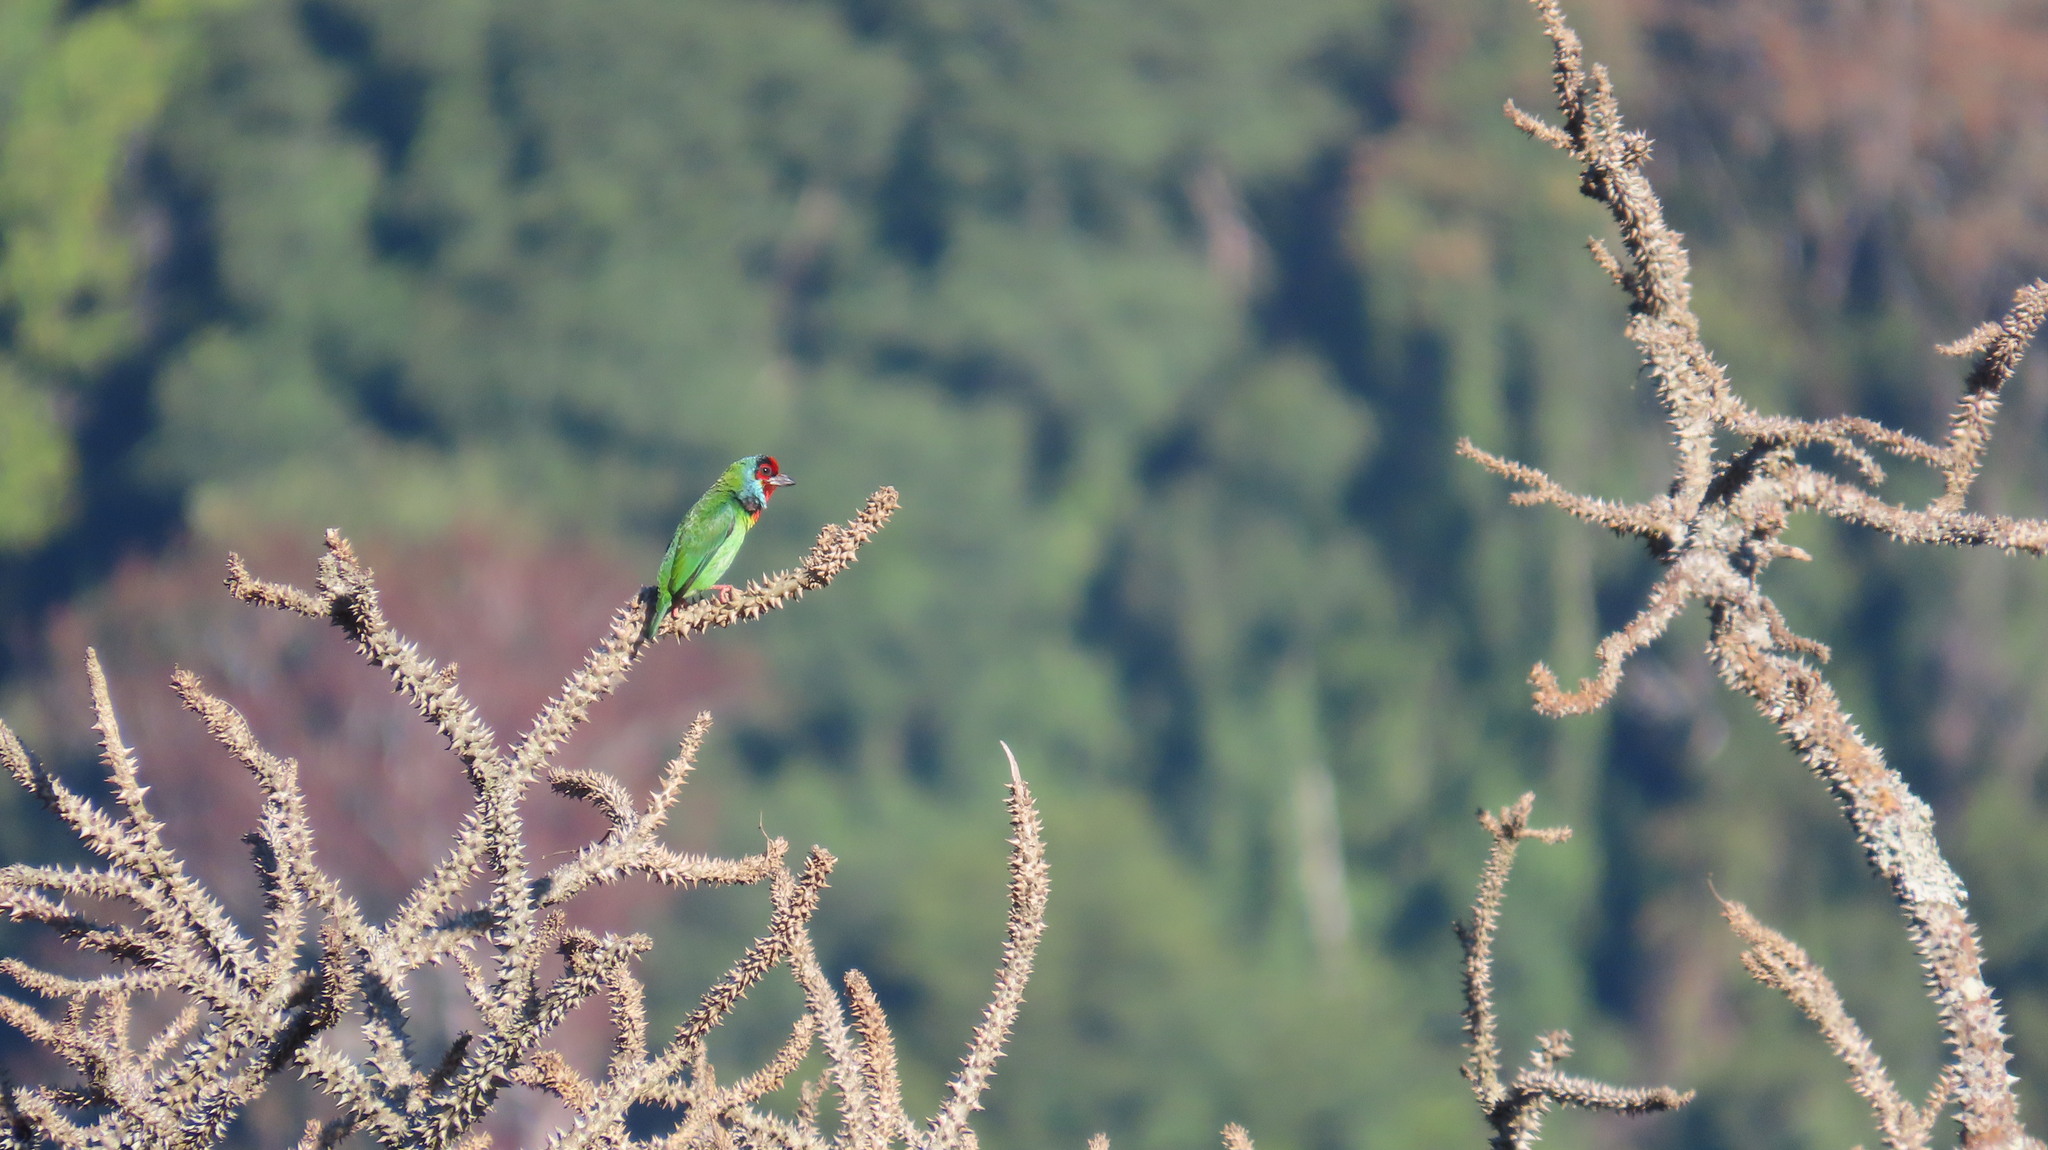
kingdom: Animalia
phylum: Chordata
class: Aves
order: Piciformes
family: Megalaimidae
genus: Psilopogon
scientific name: Psilopogon malabaricus
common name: Malabar barbet
